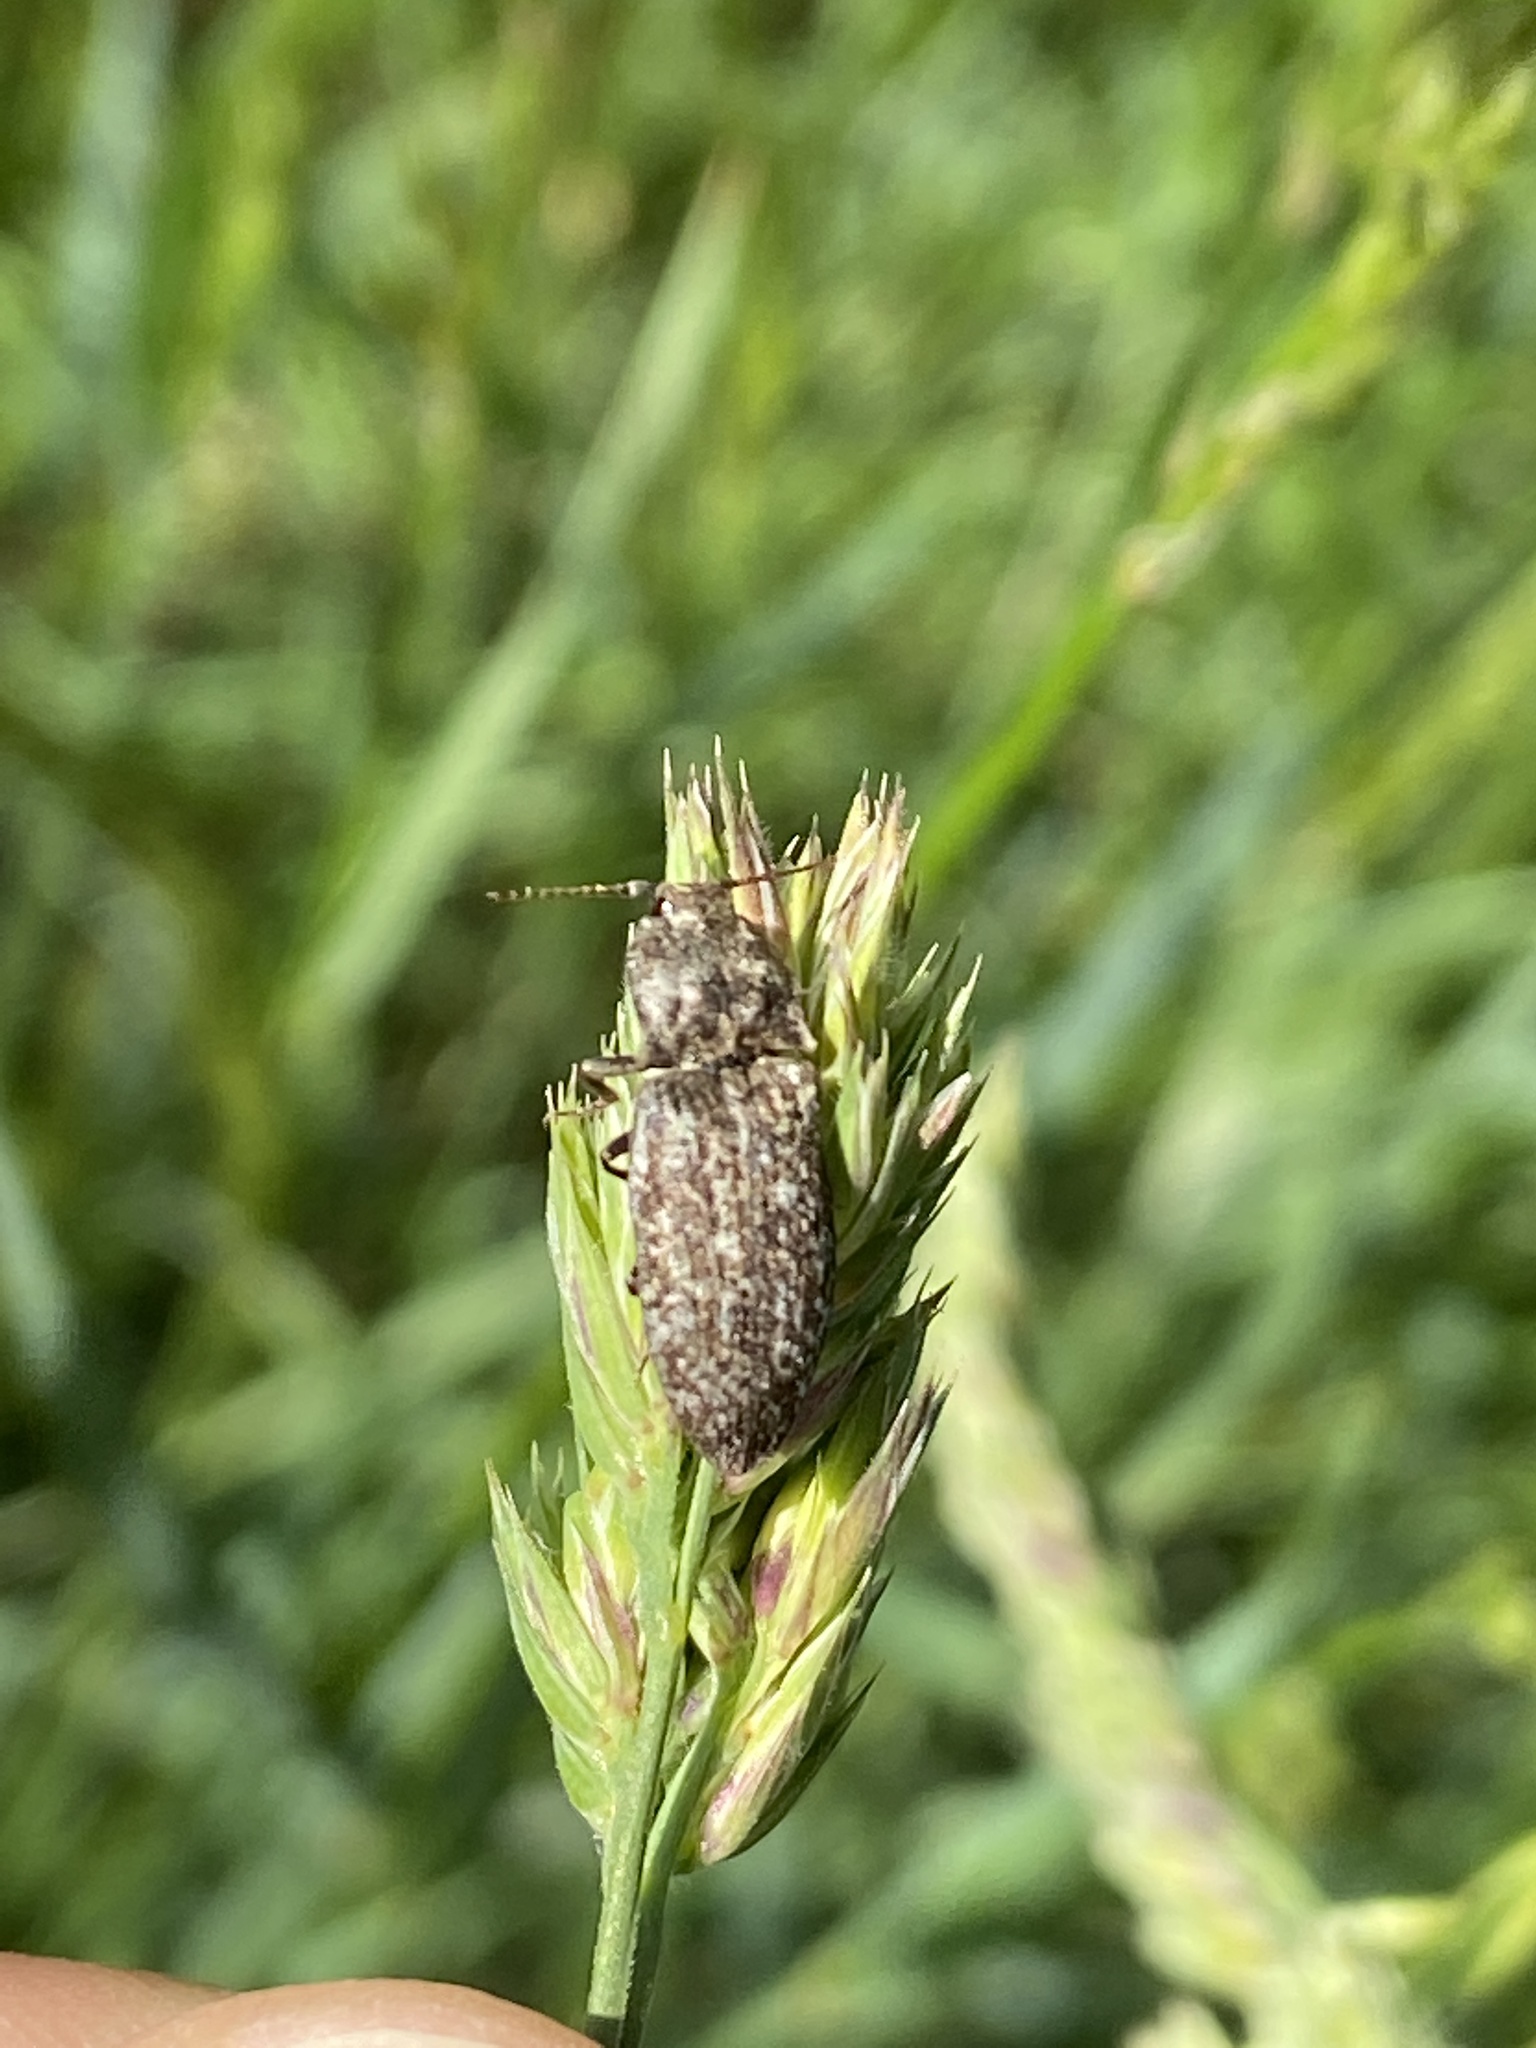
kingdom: Animalia
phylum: Arthropoda
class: Insecta
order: Coleoptera
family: Elateridae
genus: Agrypnus
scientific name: Agrypnus murinus
